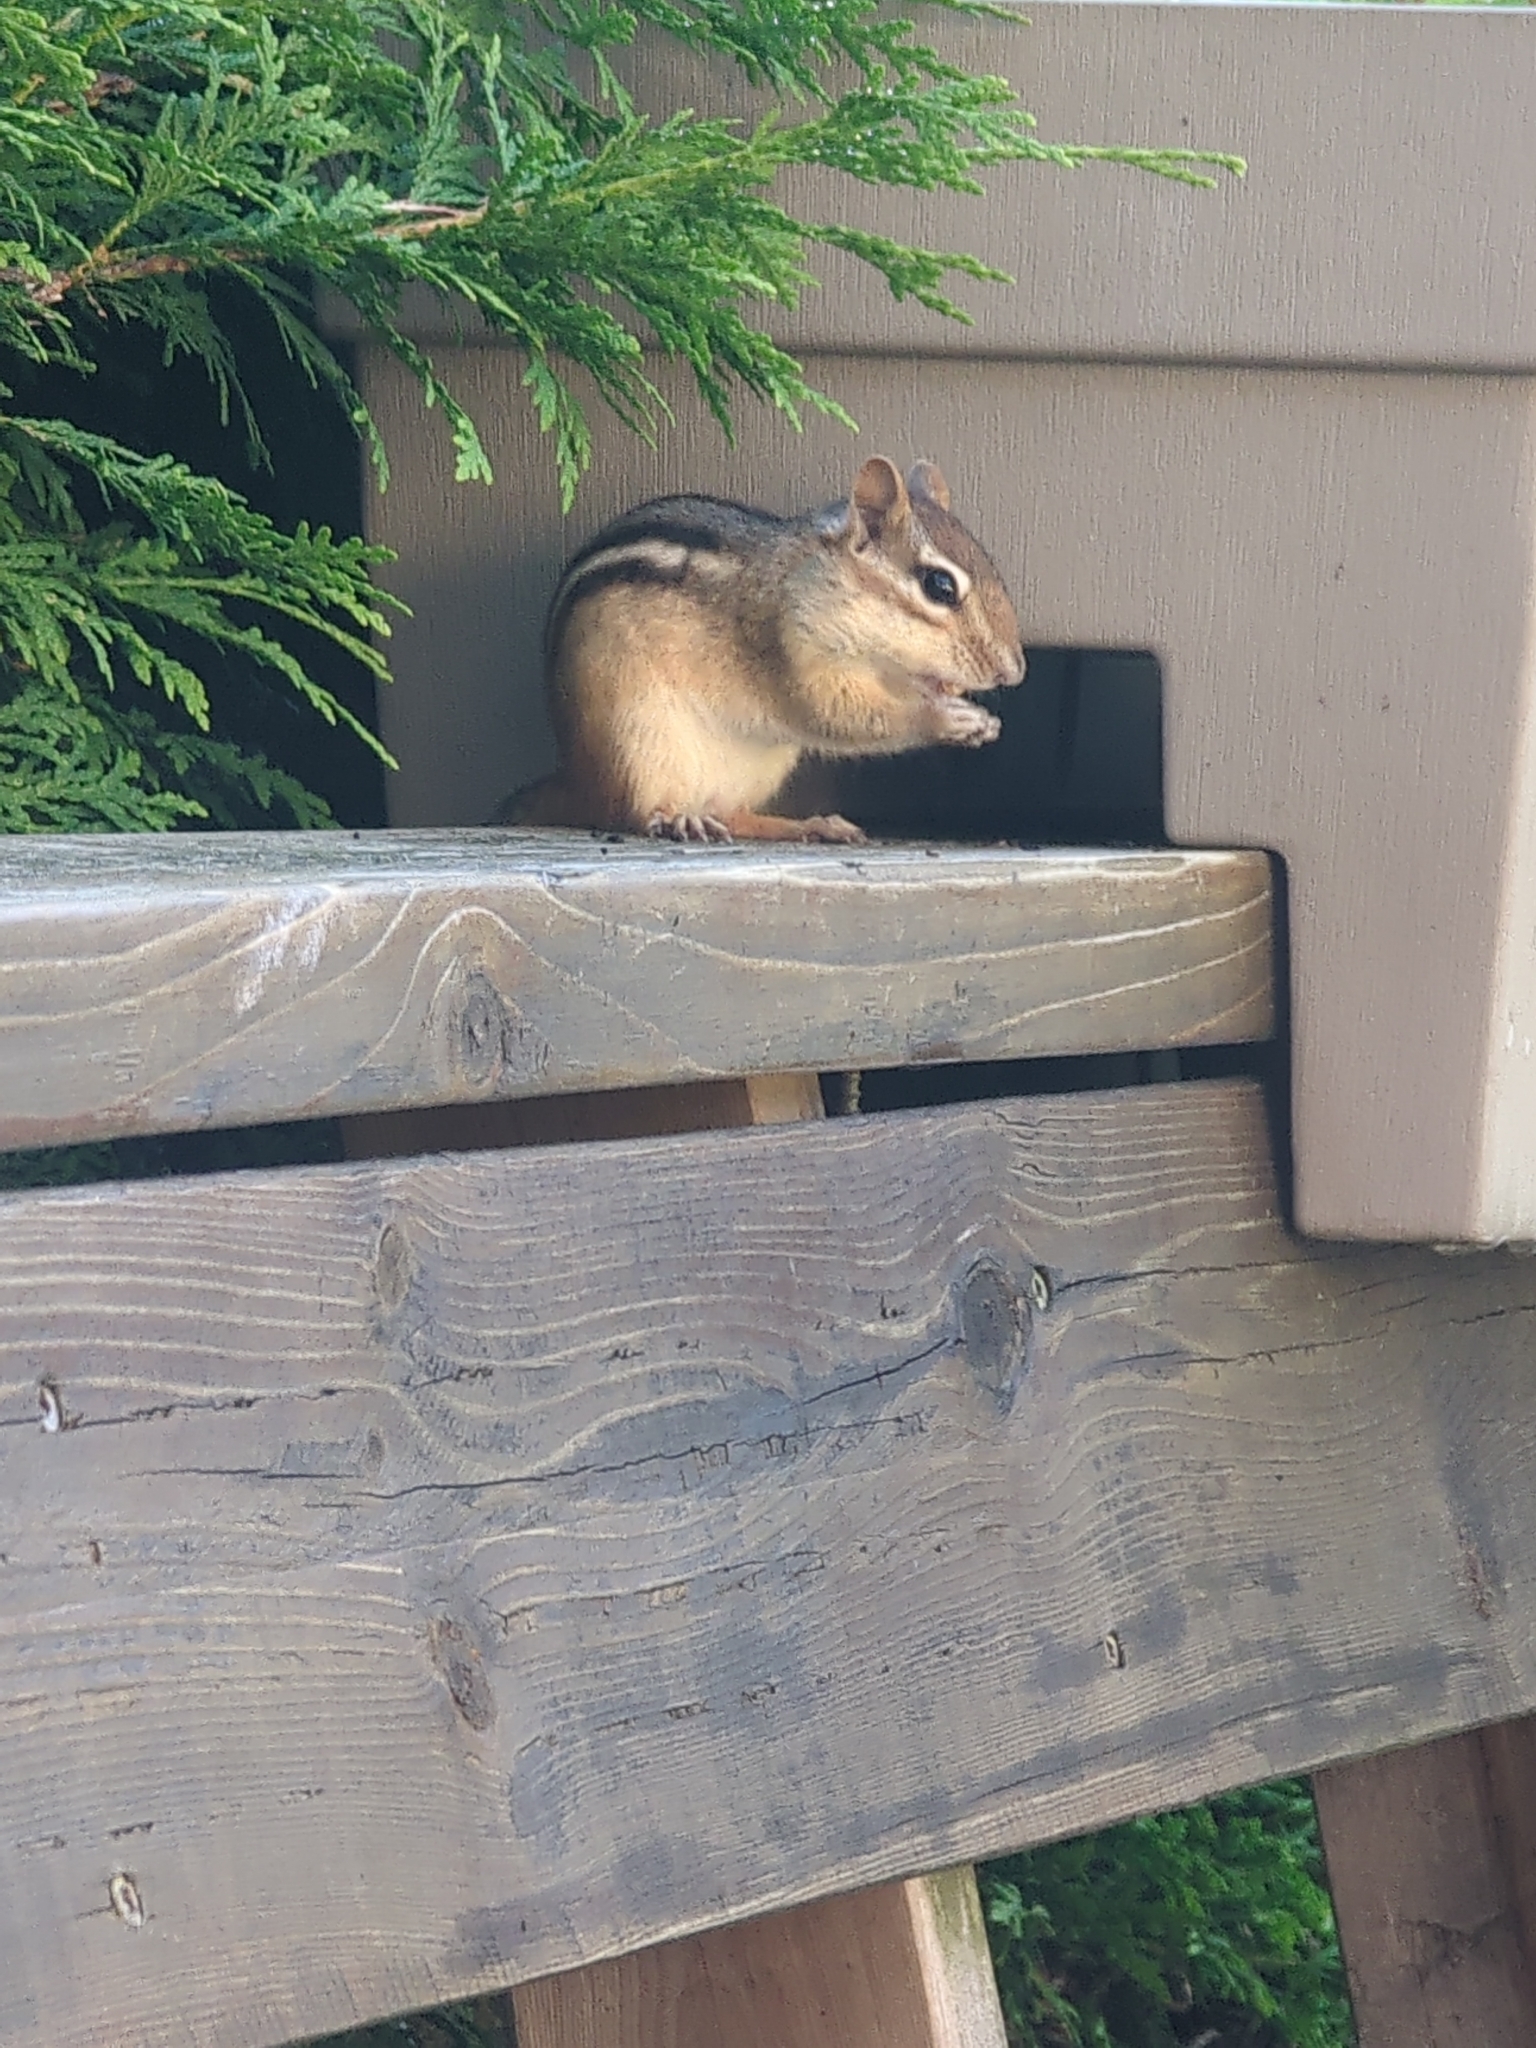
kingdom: Animalia
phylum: Chordata
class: Mammalia
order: Rodentia
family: Sciuridae
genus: Tamias
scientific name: Tamias striatus
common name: Eastern chipmunk
